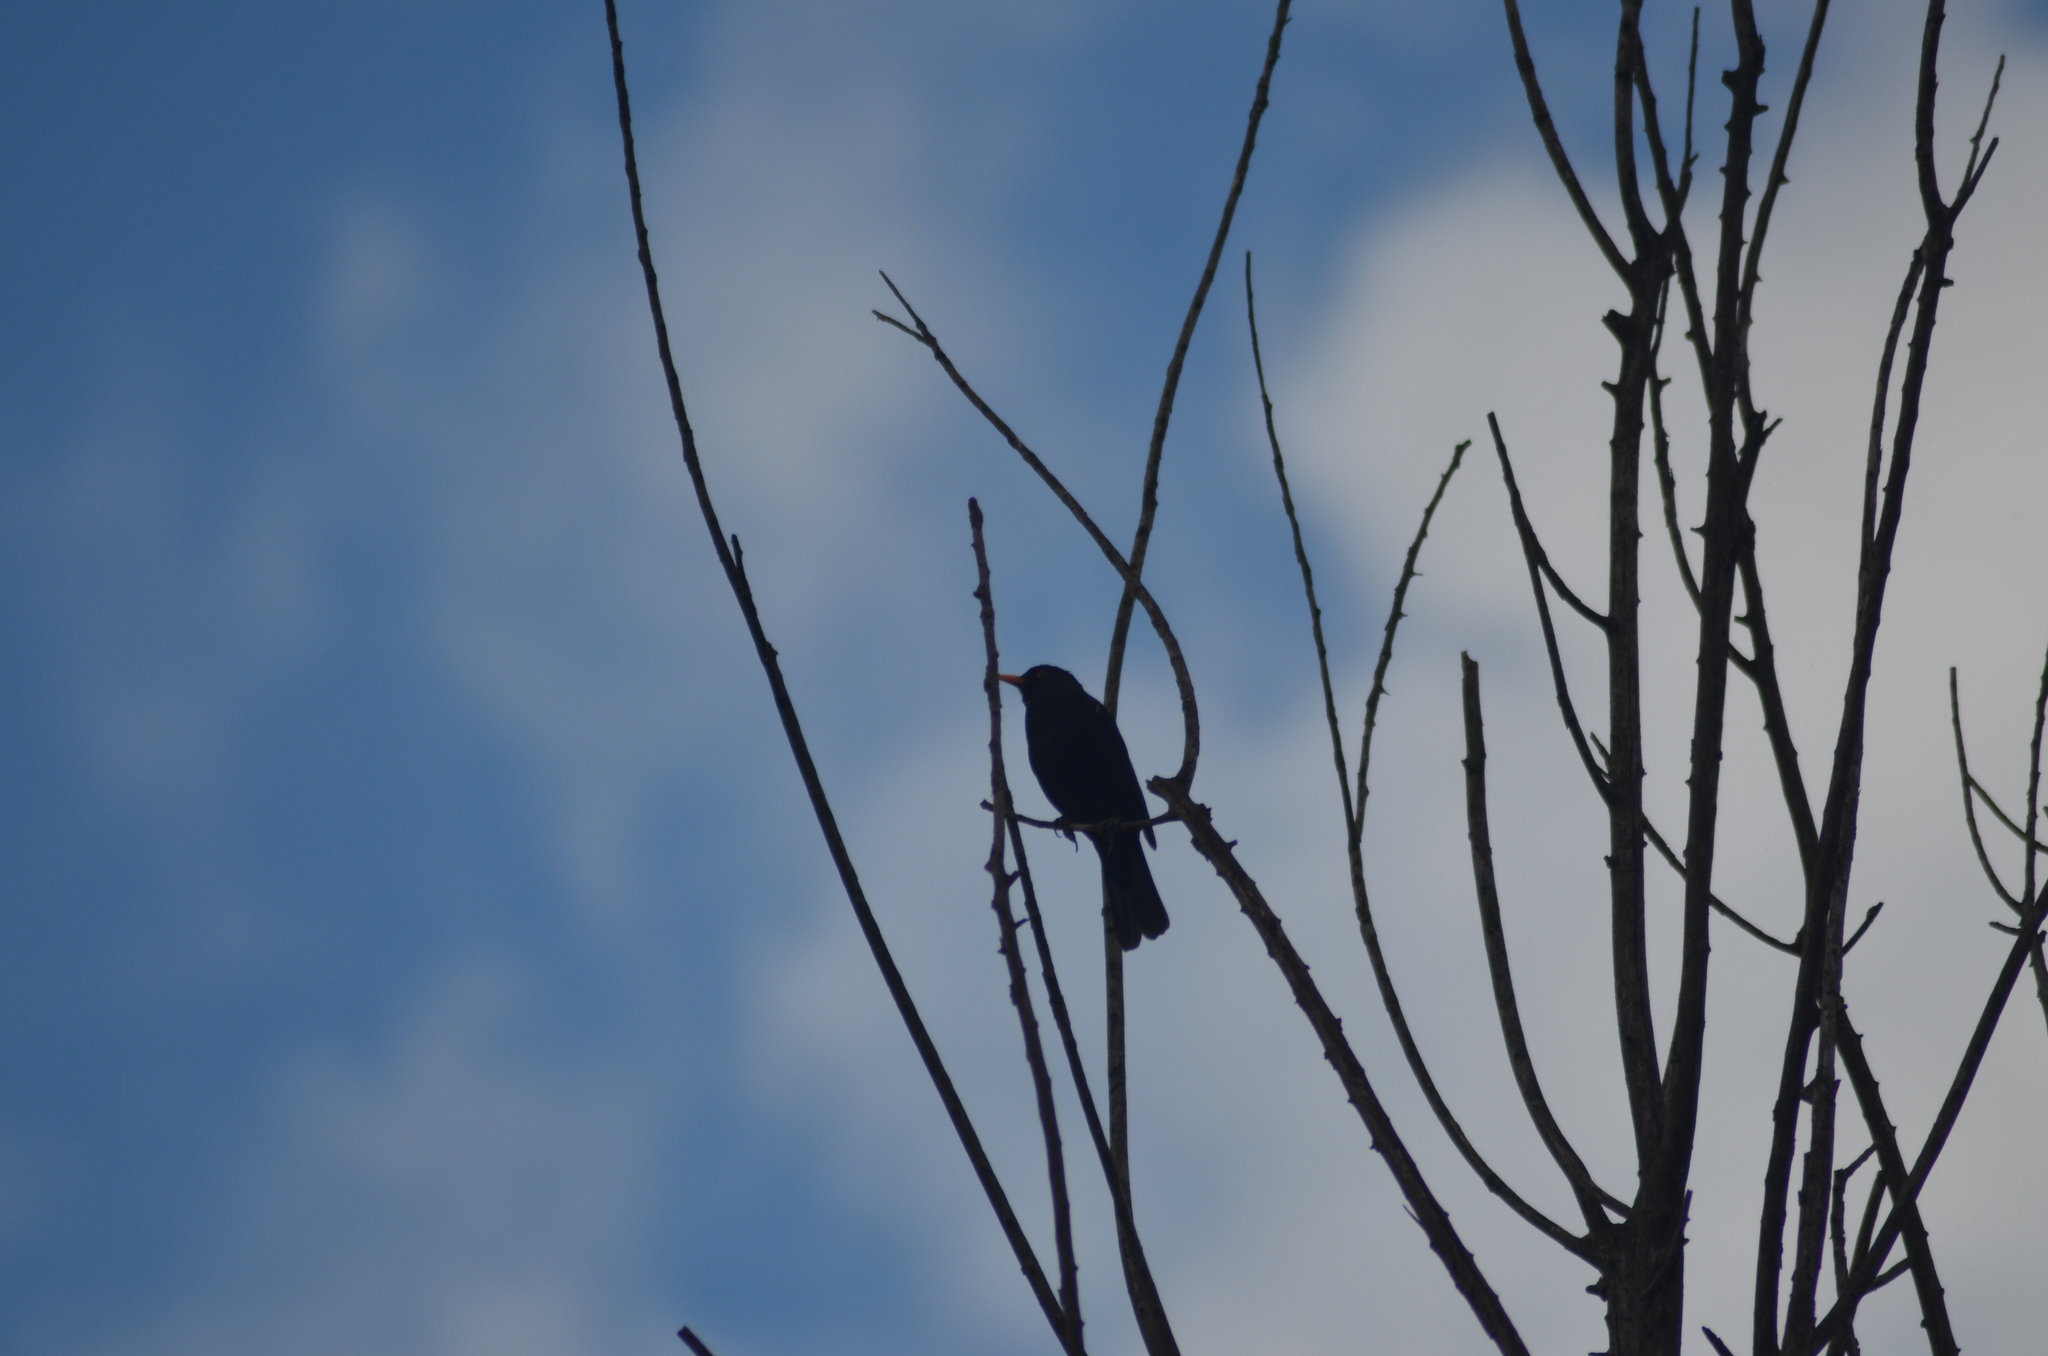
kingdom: Animalia
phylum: Chordata
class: Aves
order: Passeriformes
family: Turdidae
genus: Turdus
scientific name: Turdus merula
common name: Common blackbird
